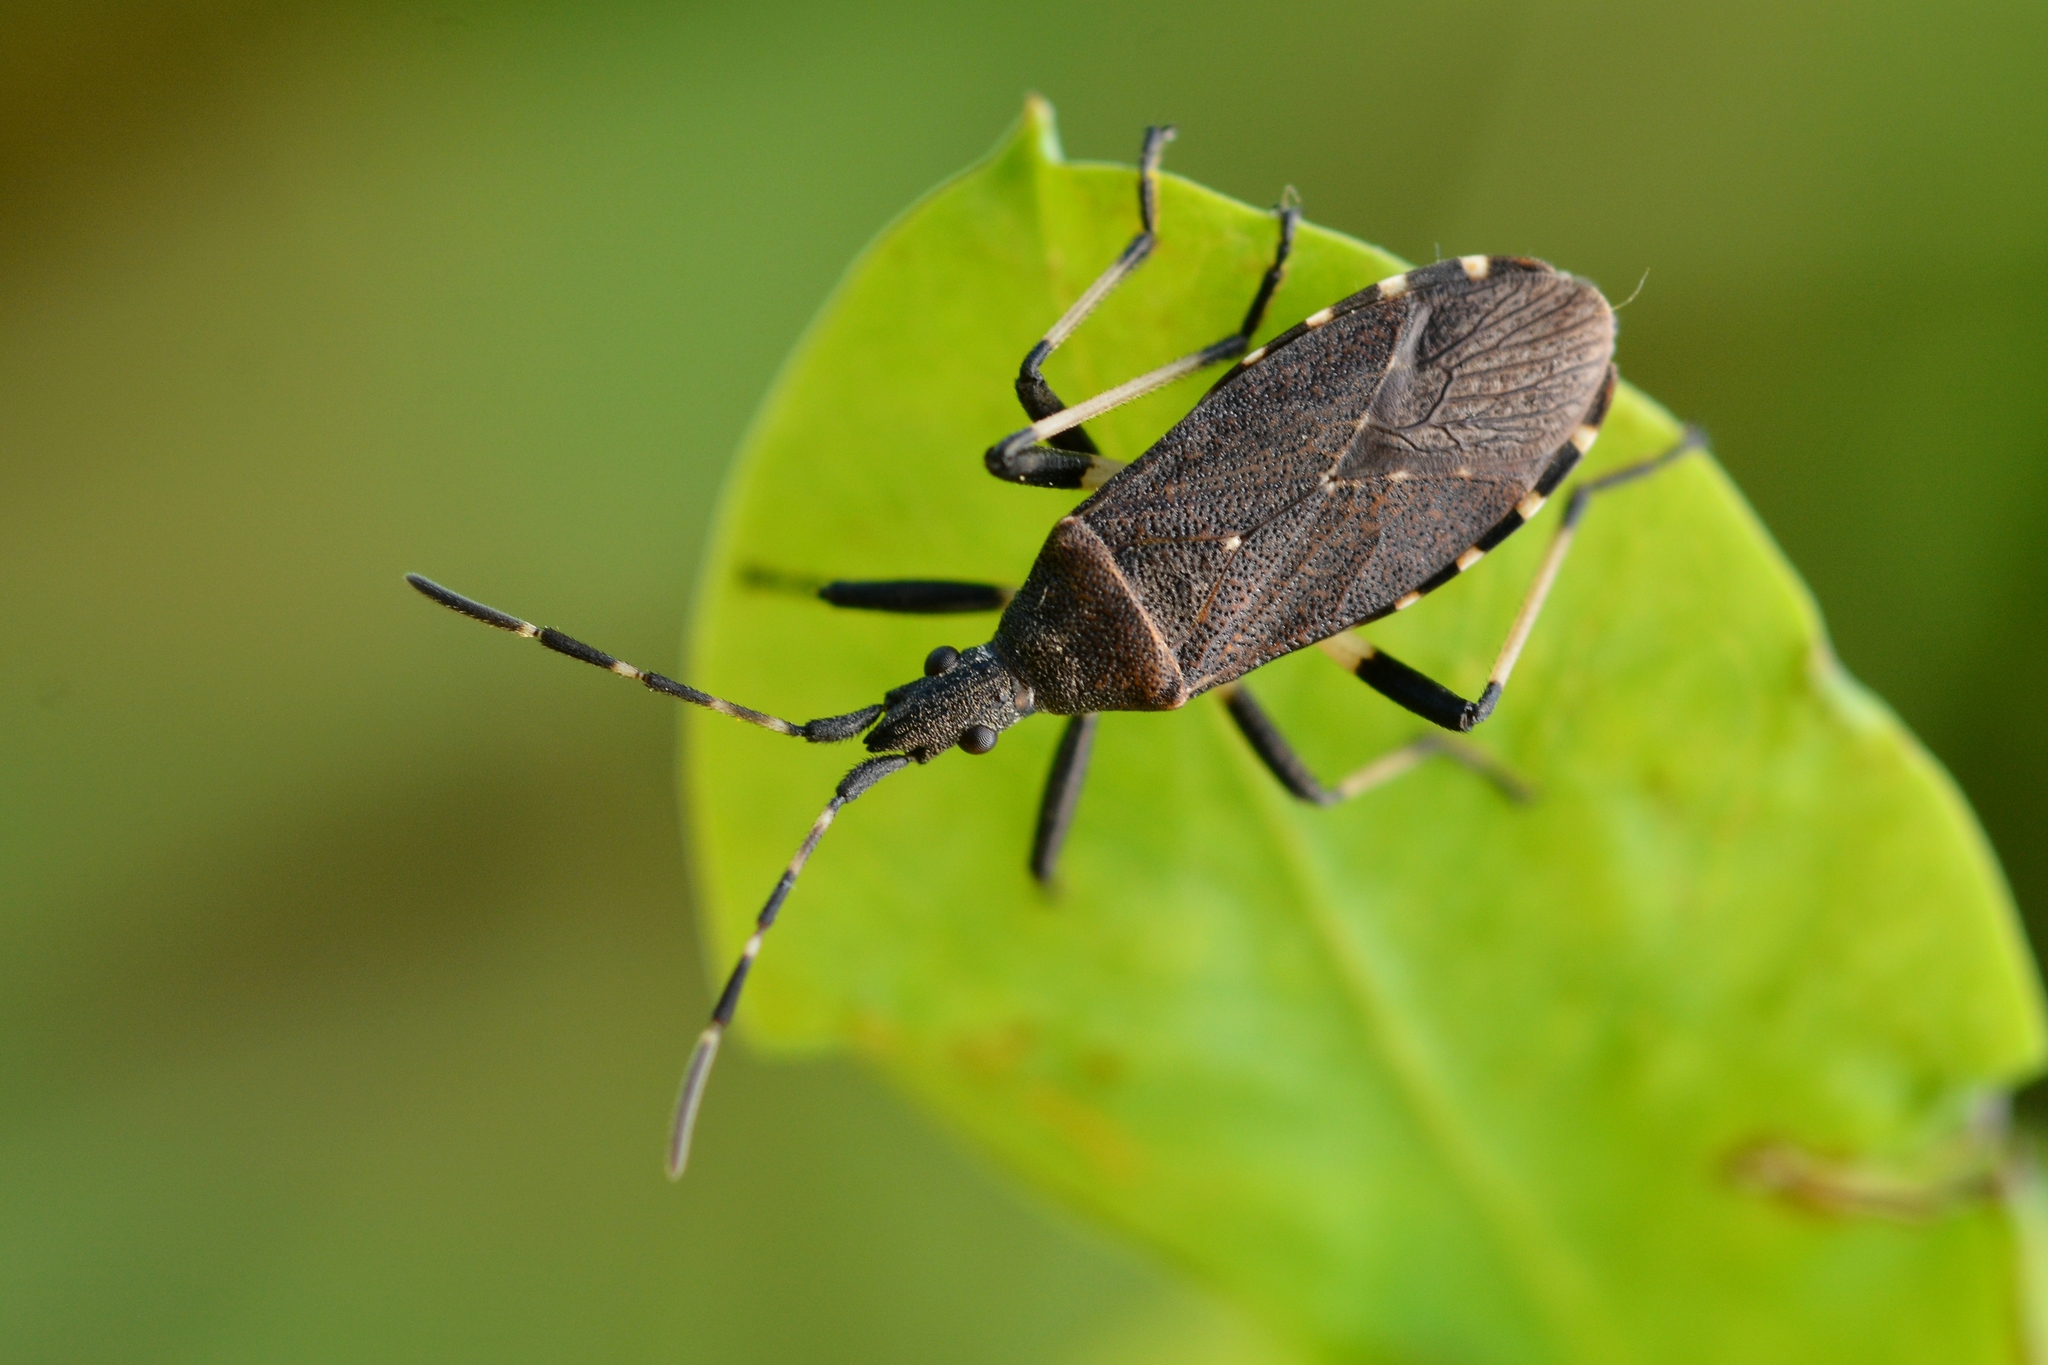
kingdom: Animalia
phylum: Arthropoda
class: Insecta
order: Hemiptera
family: Stenocephalidae
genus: Dicranocephalus
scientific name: Dicranocephalus medius
